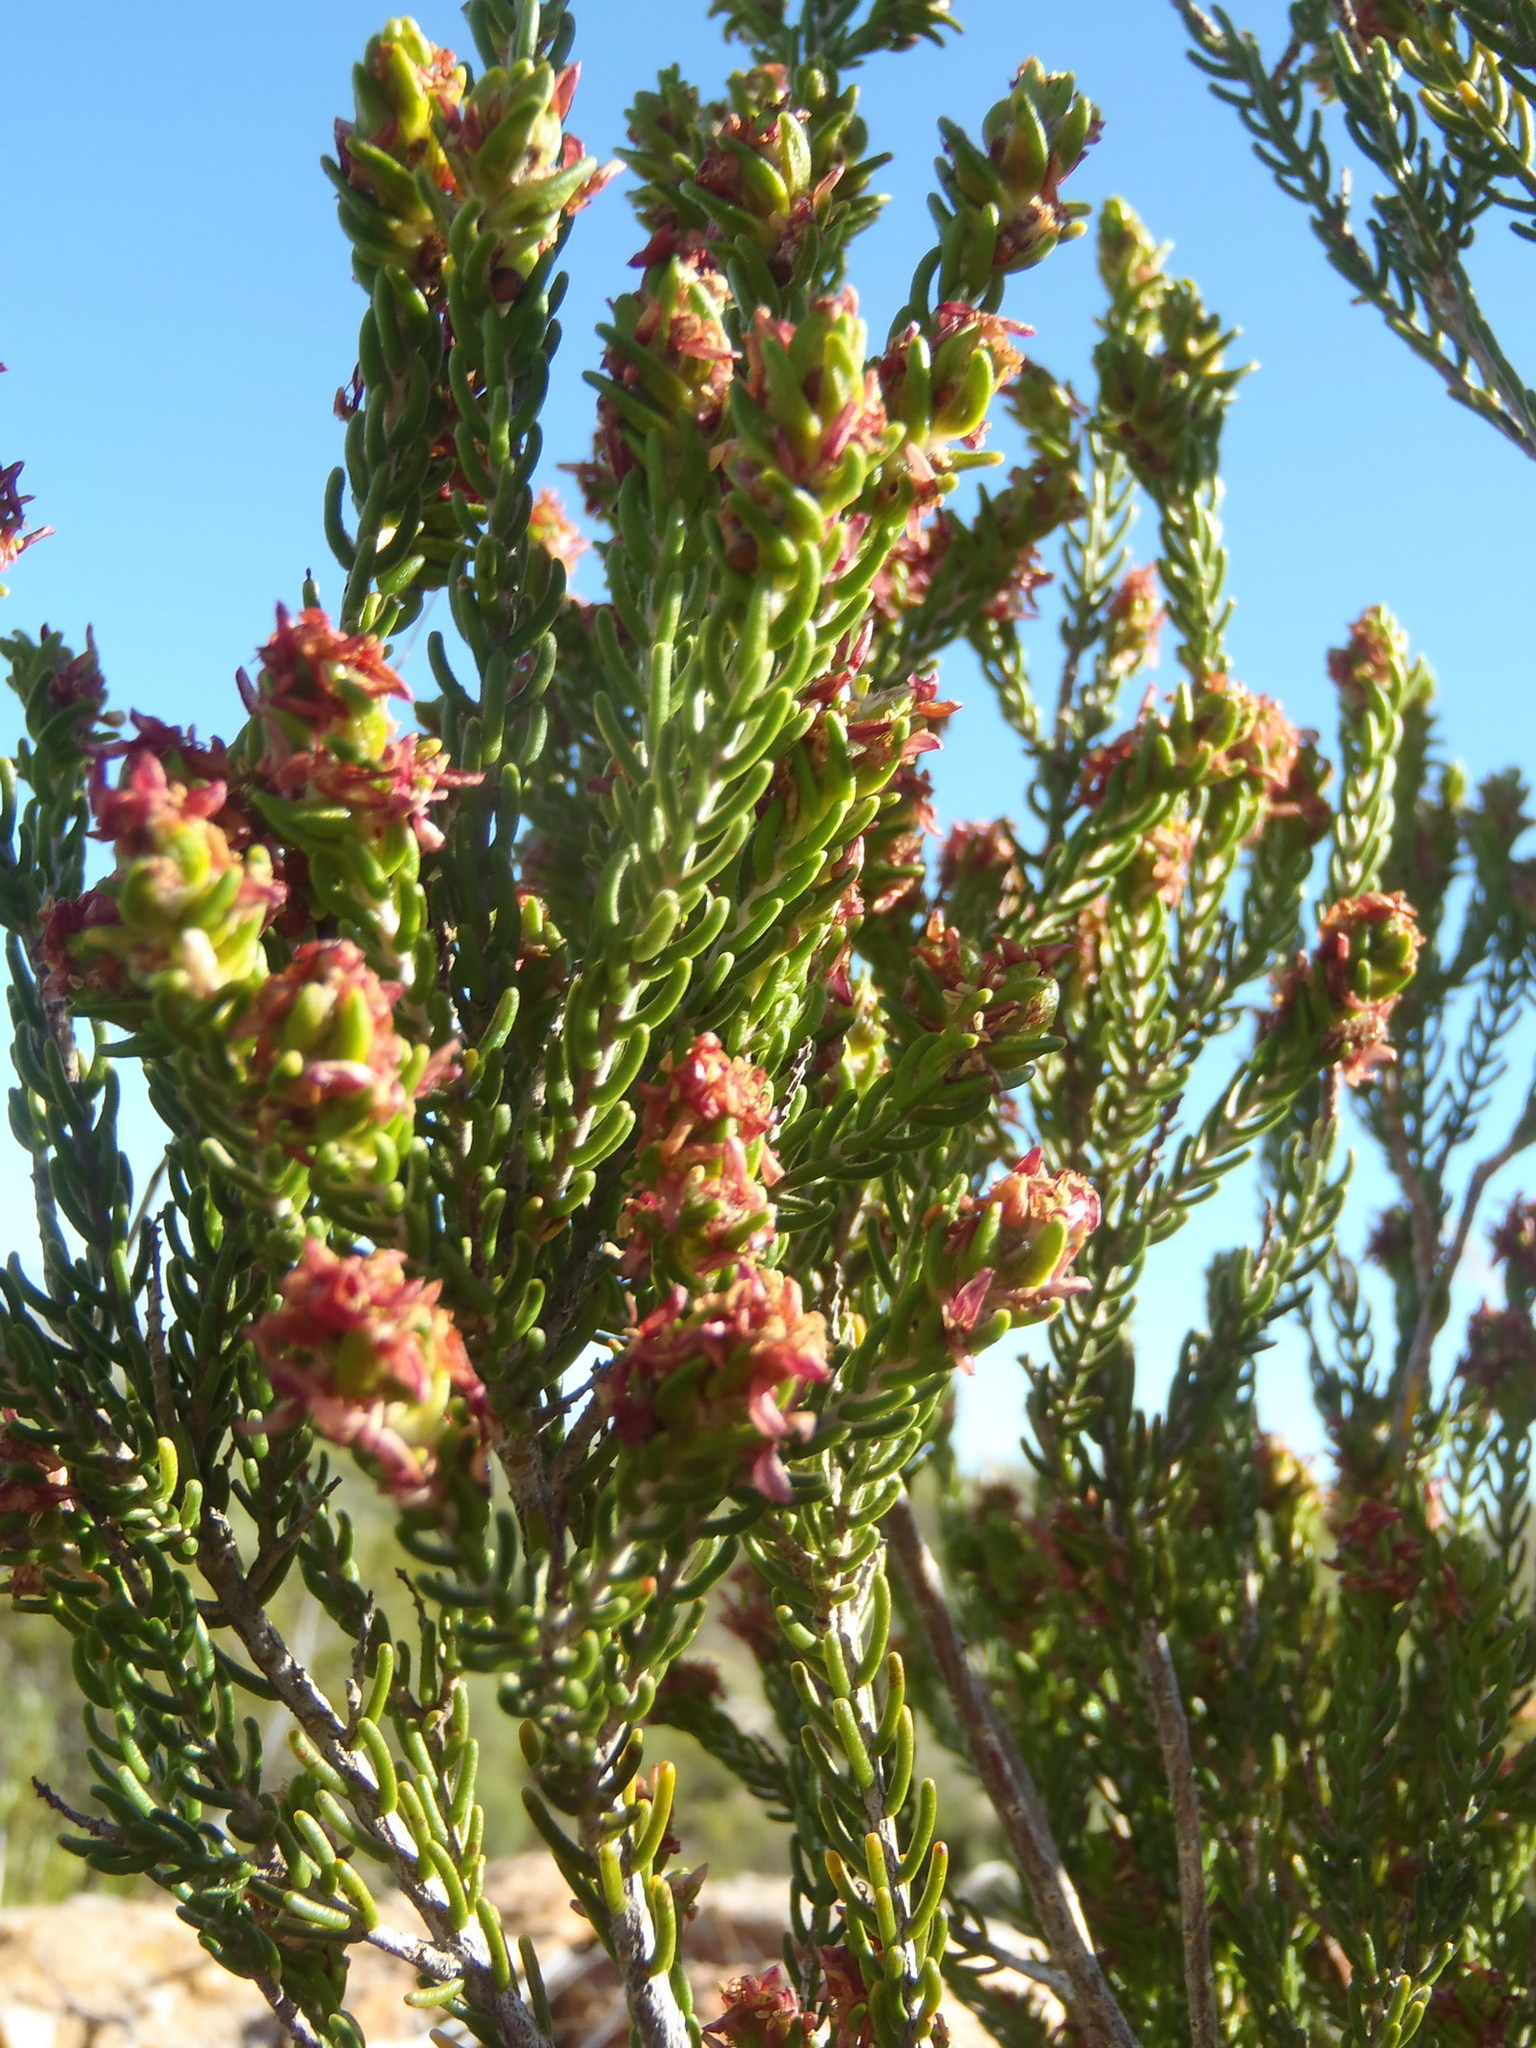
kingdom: Plantae
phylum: Tracheophyta
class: Magnoliopsida
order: Malvales
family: Thymelaeaceae
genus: Passerina
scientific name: Passerina obtusifolia
